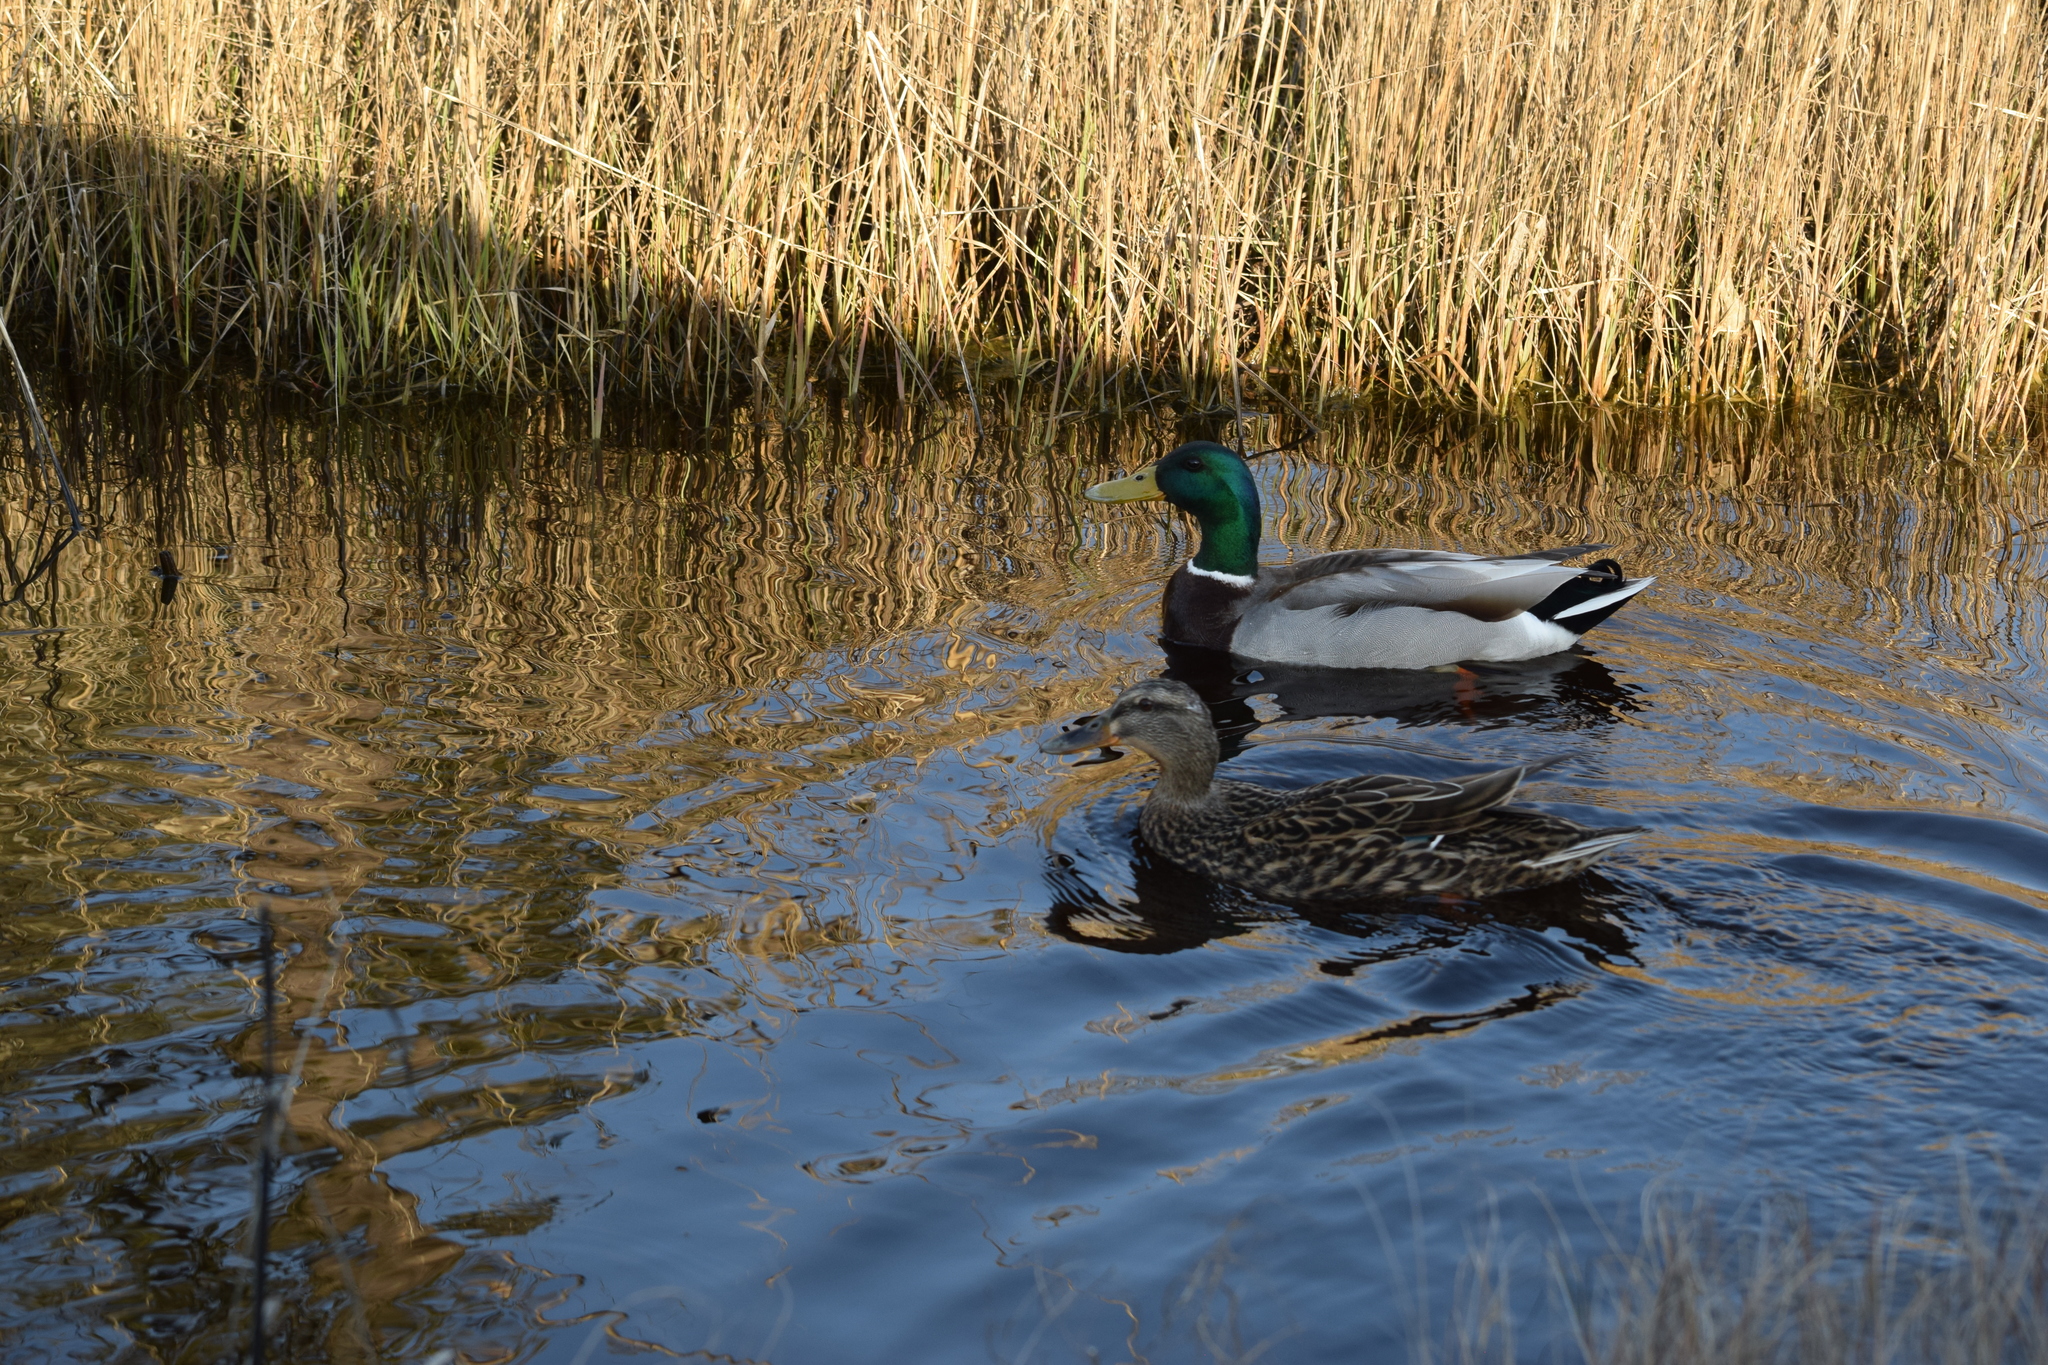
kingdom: Animalia
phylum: Chordata
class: Aves
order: Anseriformes
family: Anatidae
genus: Anas
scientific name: Anas platyrhynchos
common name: Mallard
